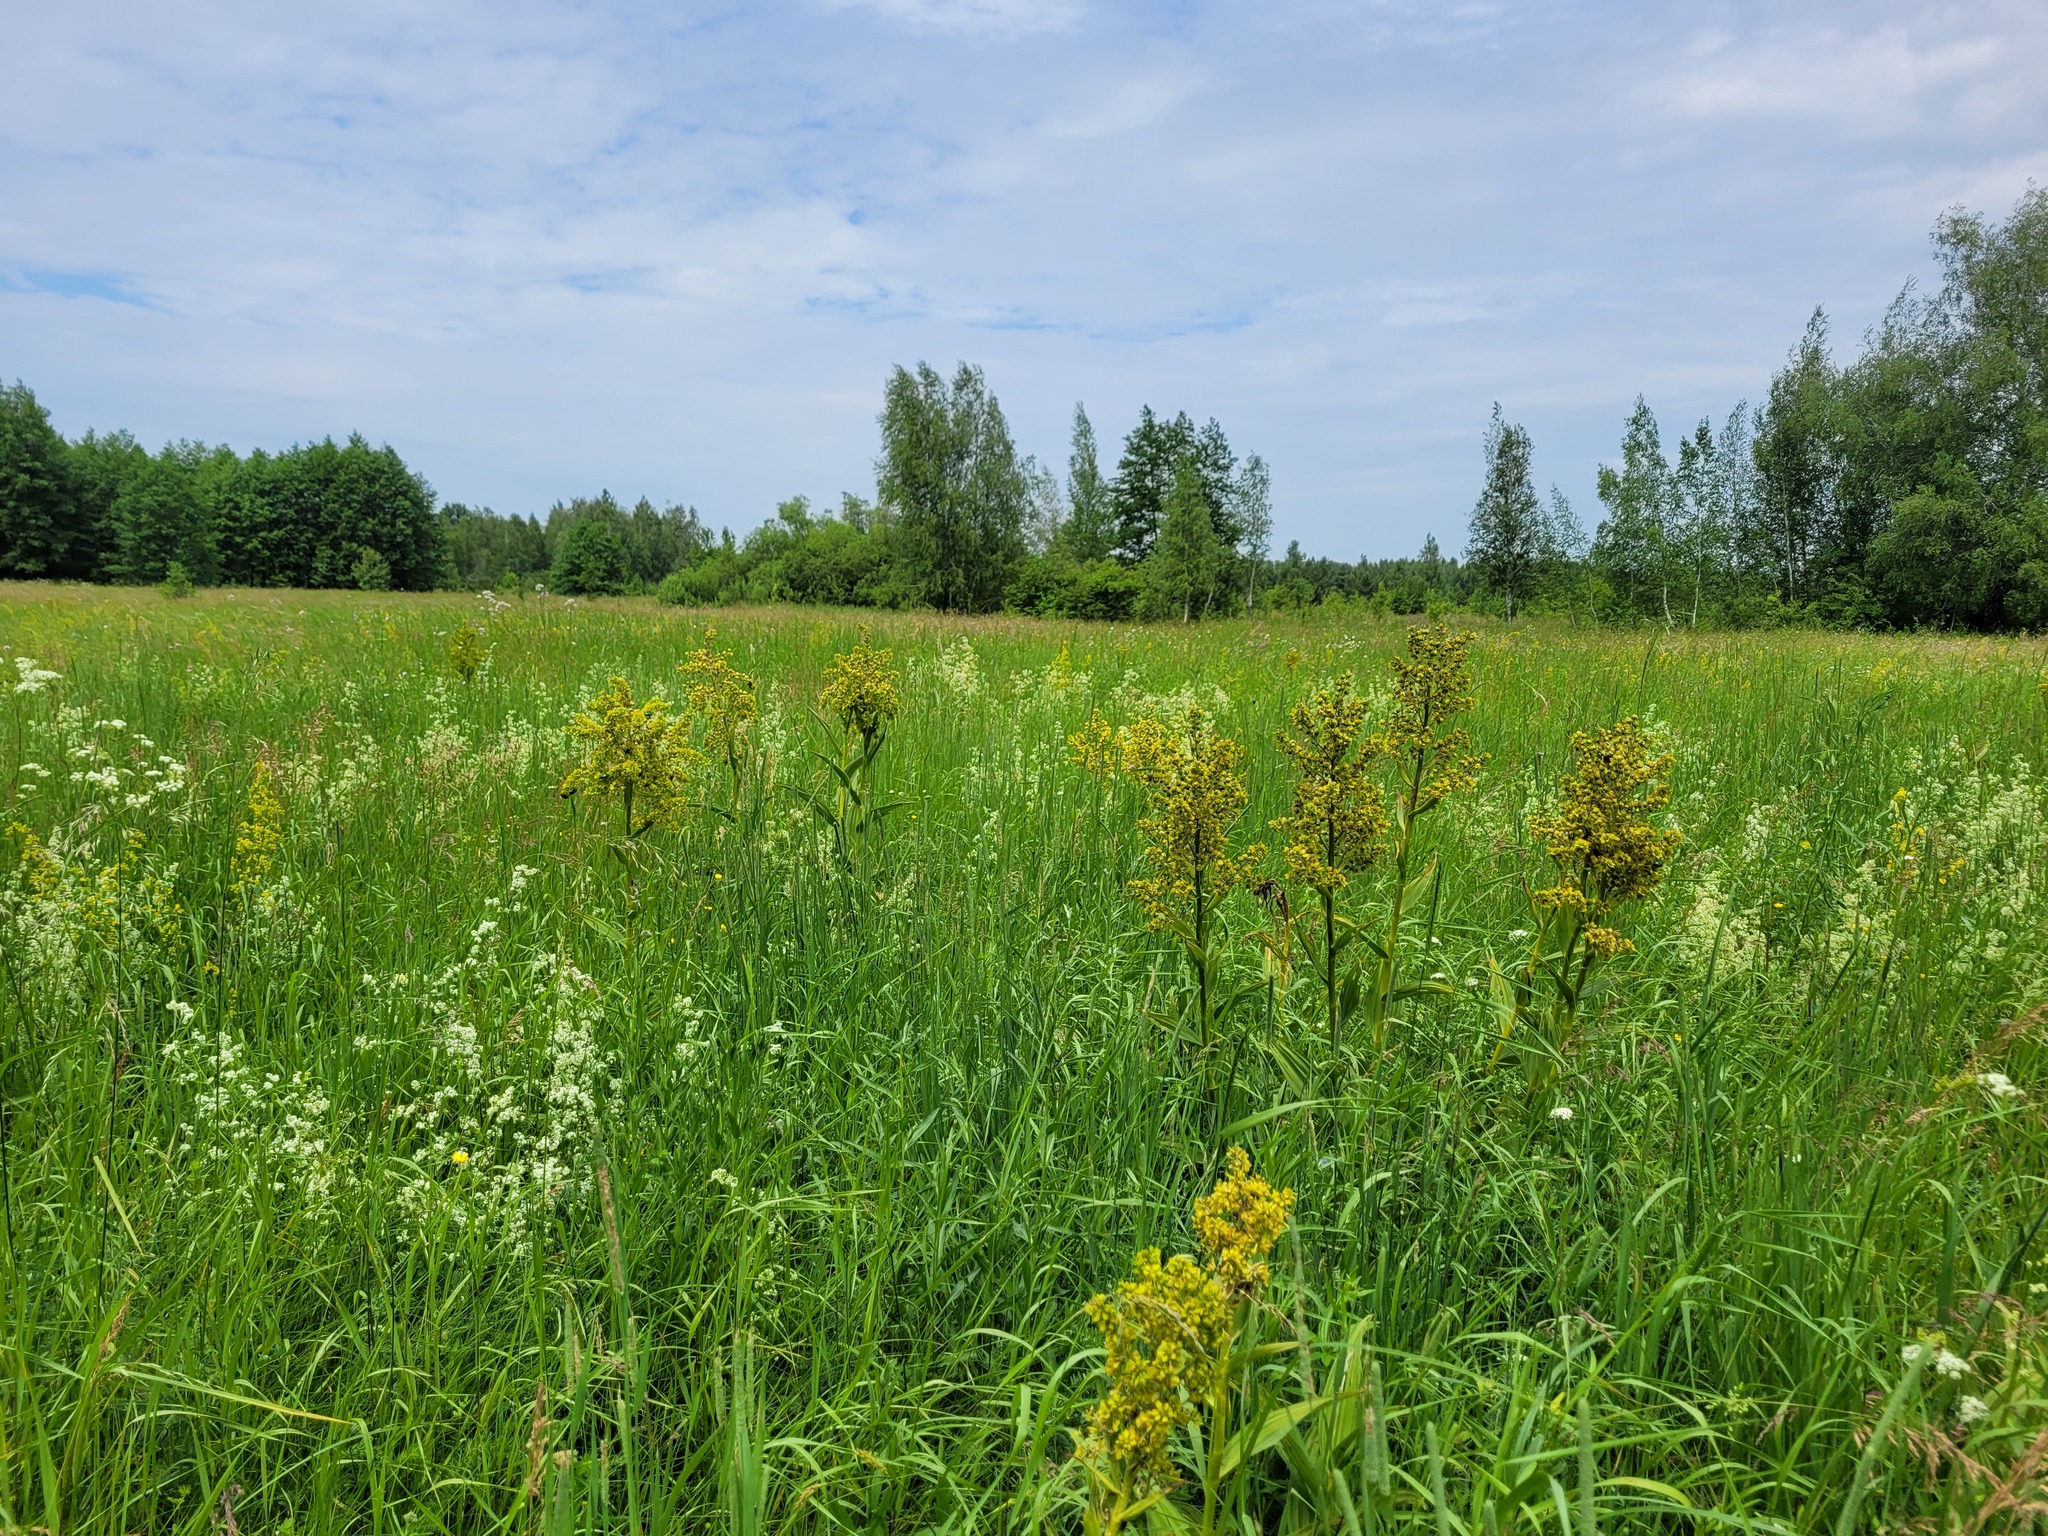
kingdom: Plantae
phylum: Tracheophyta
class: Liliopsida
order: Liliales
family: Melanthiaceae
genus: Veratrum
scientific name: Veratrum lobelianum
